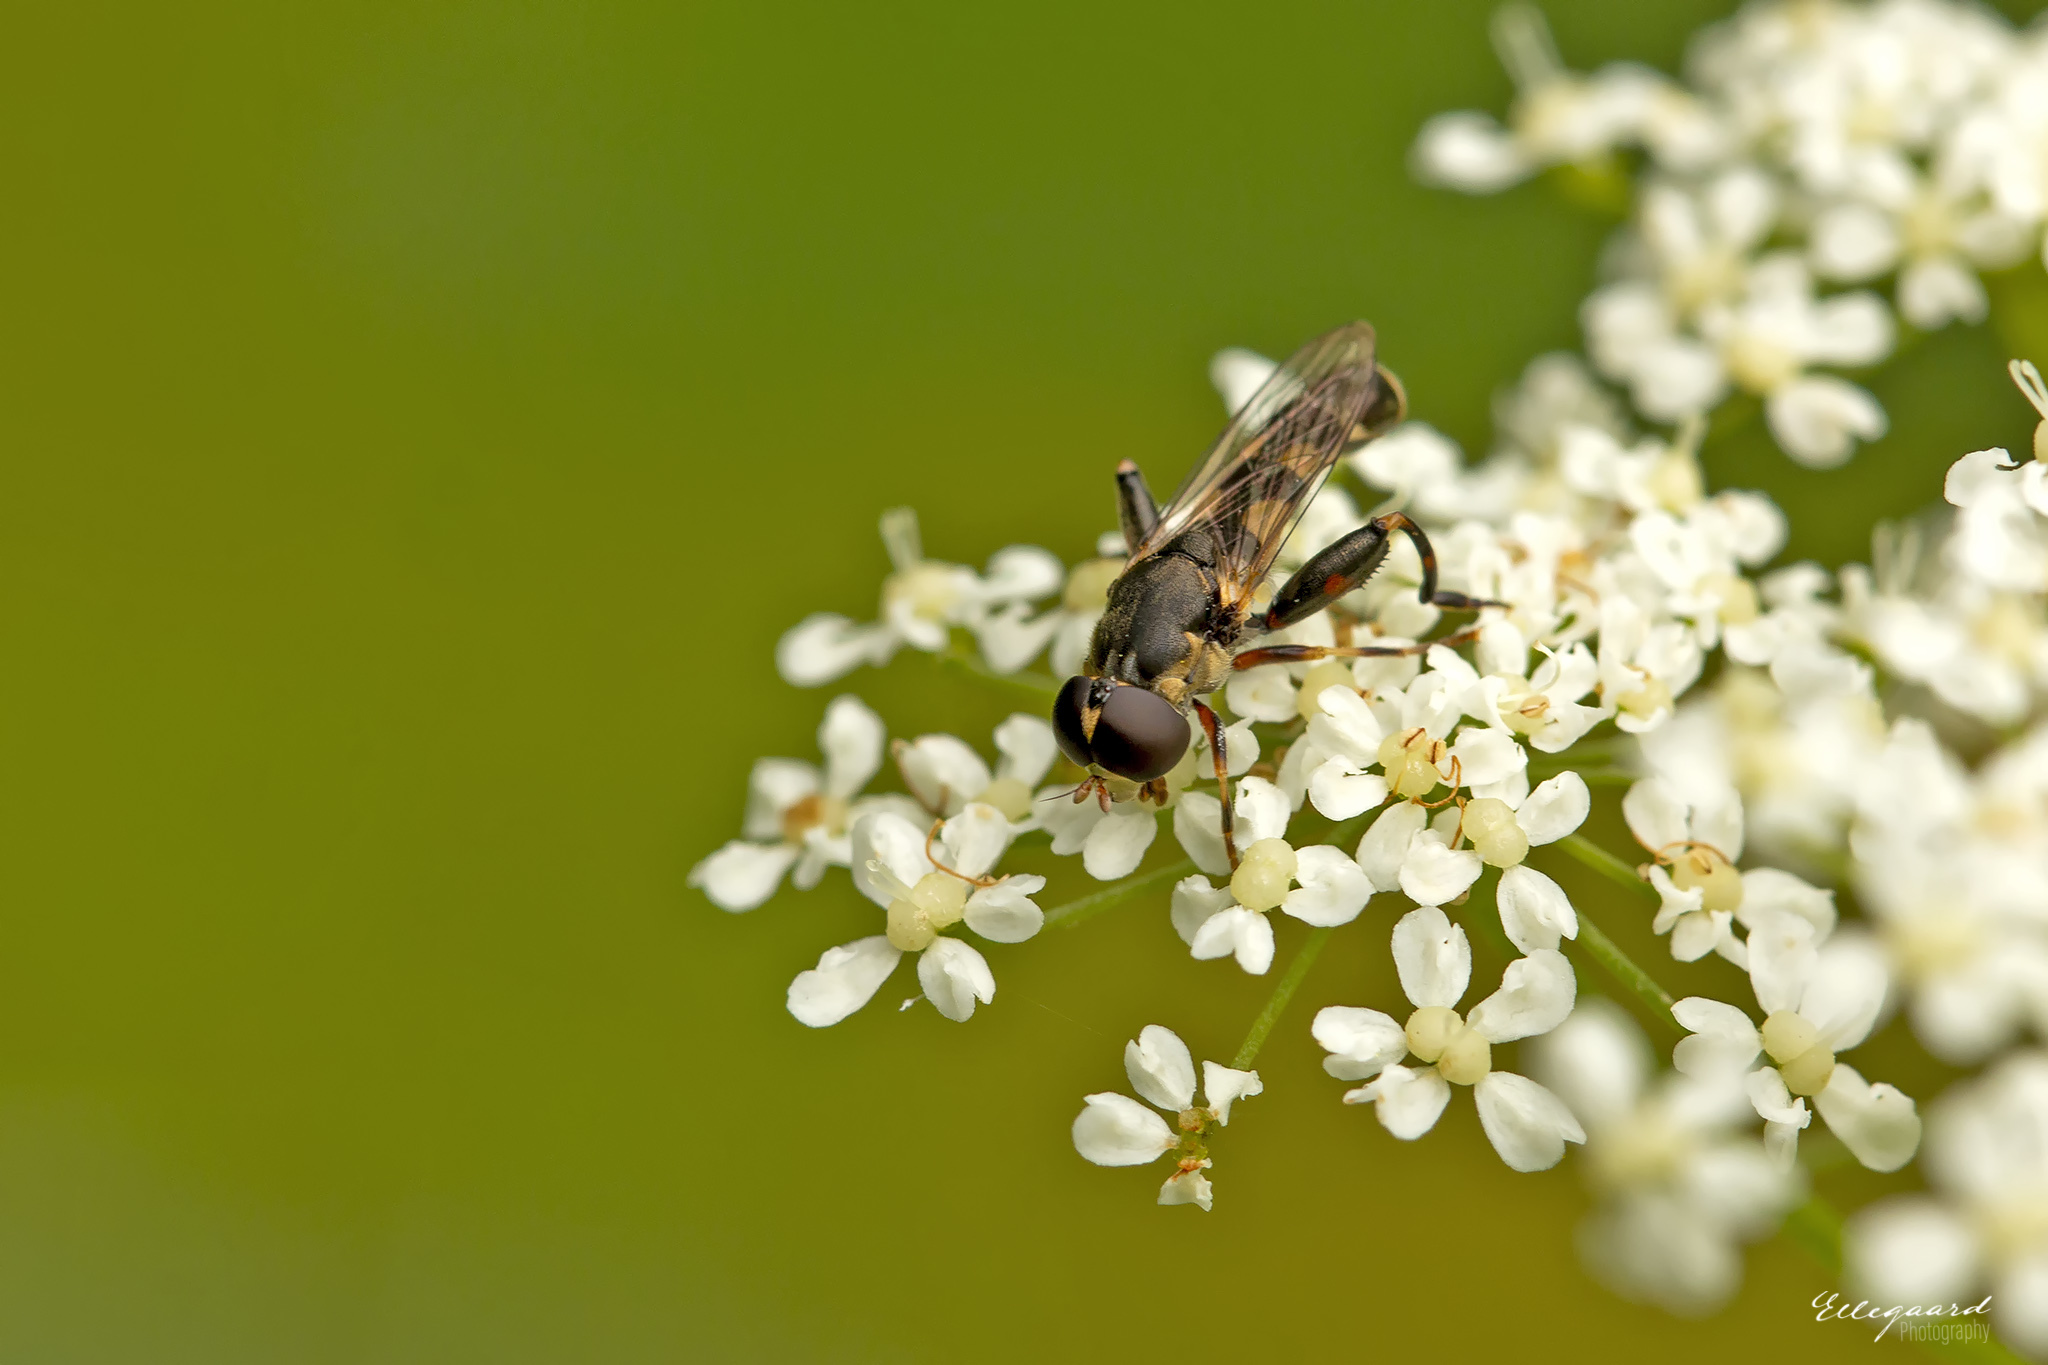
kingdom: Animalia
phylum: Arthropoda
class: Insecta
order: Diptera
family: Syrphidae
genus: Syritta
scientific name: Syritta pipiens
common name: Hover fly
